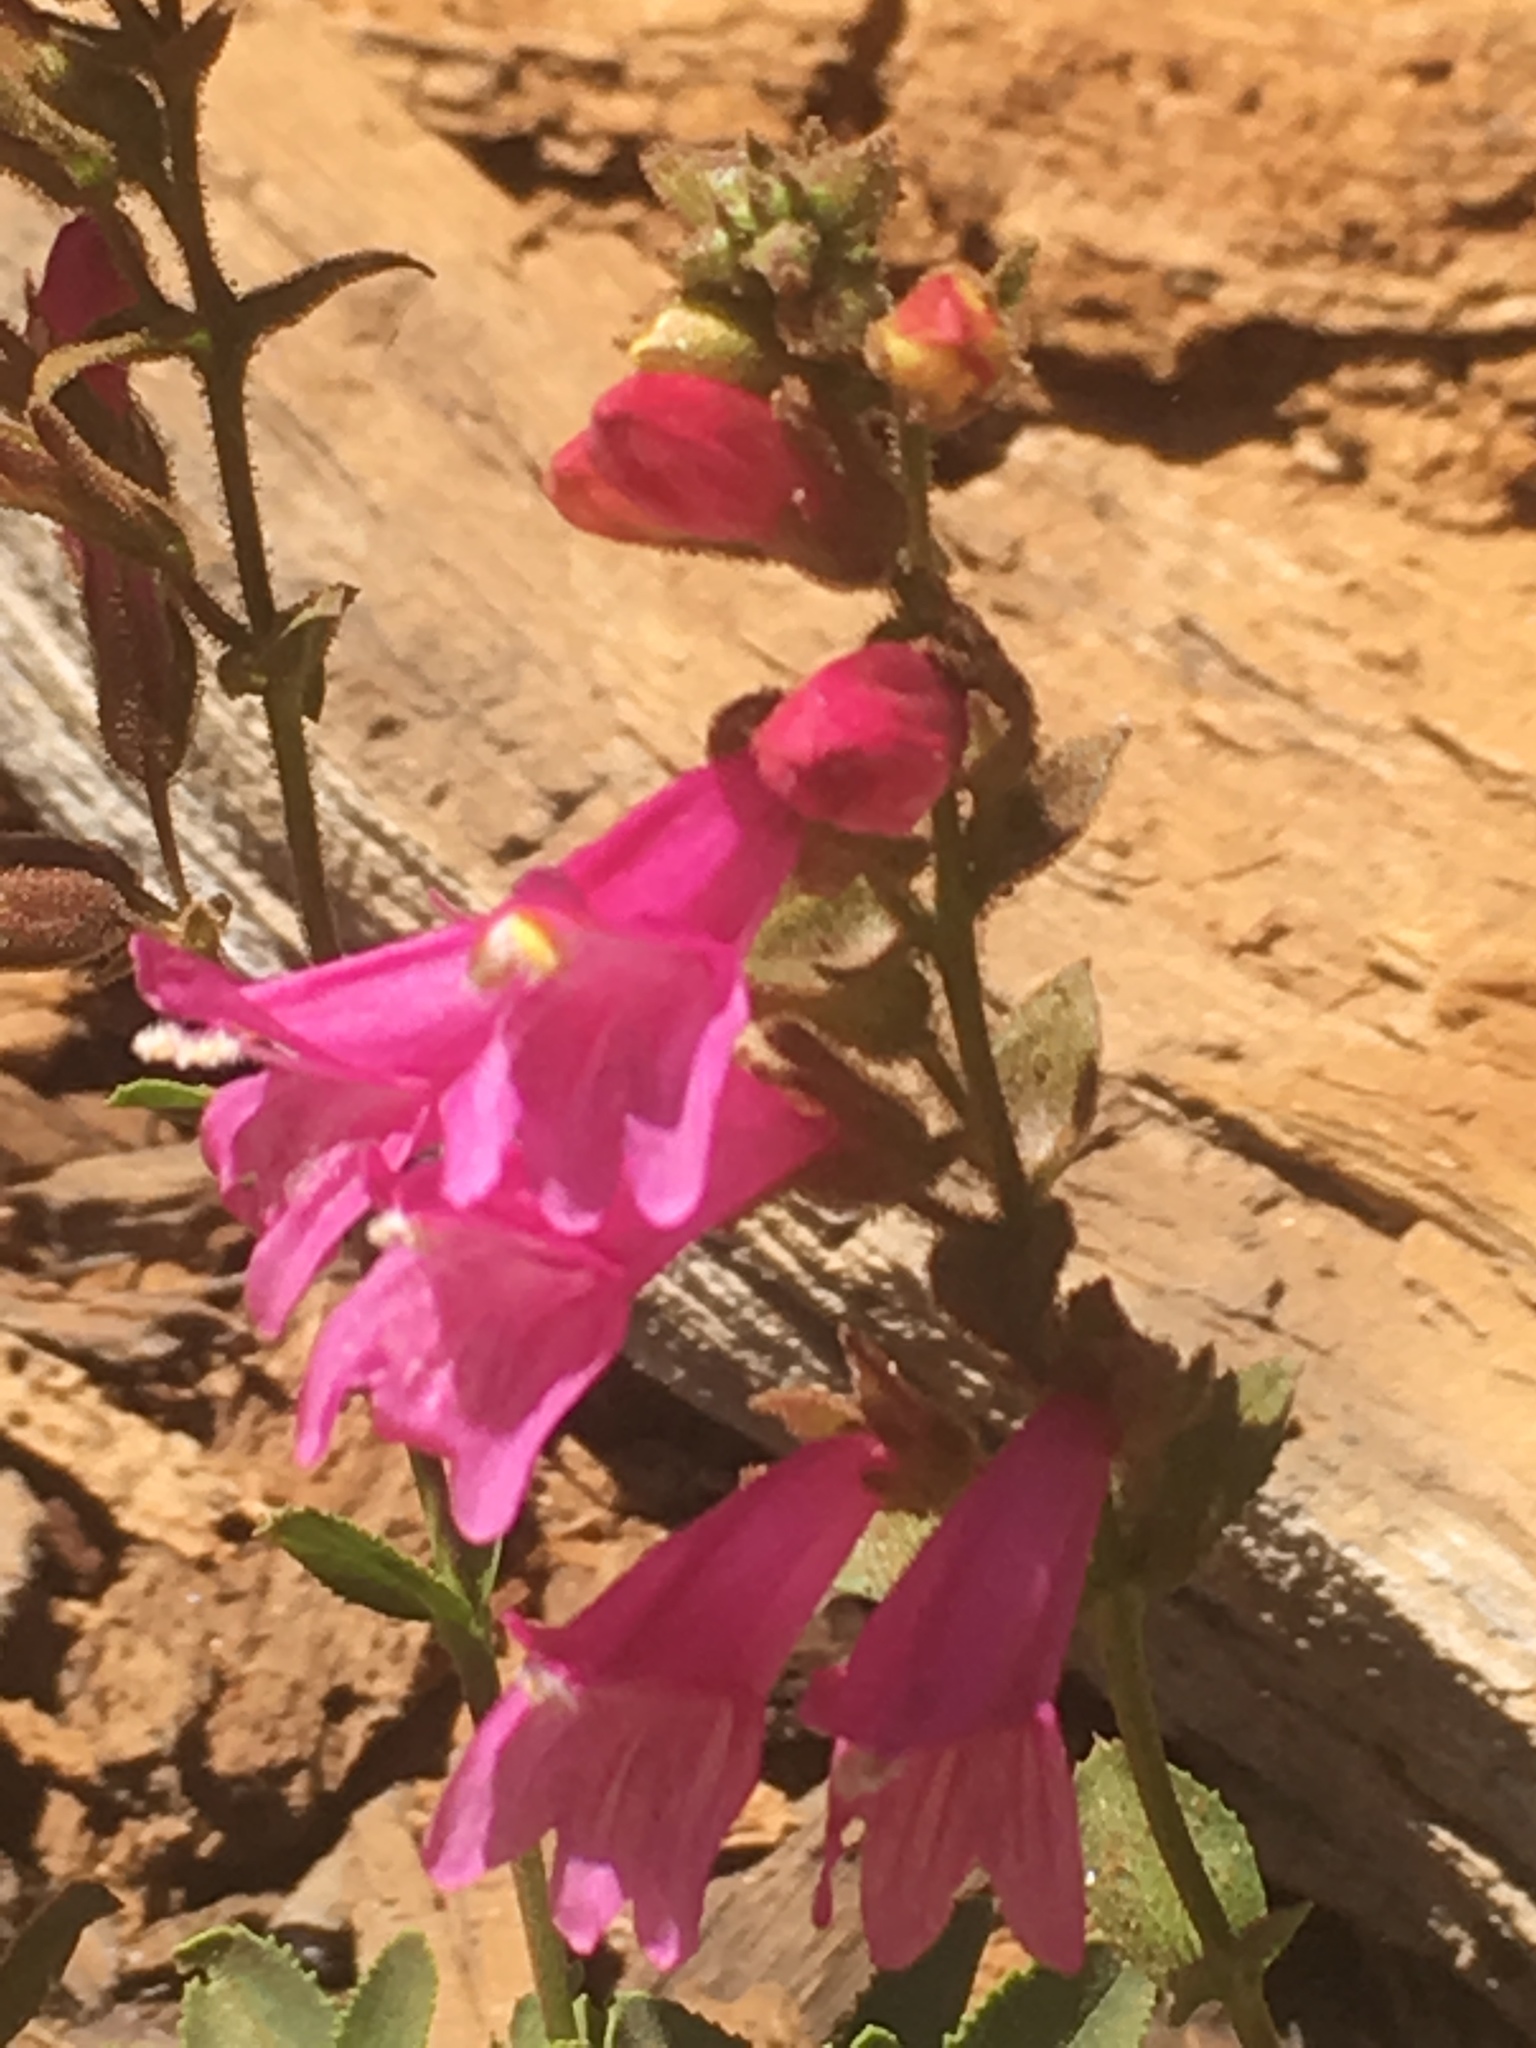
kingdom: Plantae
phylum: Tracheophyta
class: Magnoliopsida
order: Lamiales
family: Plantaginaceae
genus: Penstemon
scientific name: Penstemon newberryi
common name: Mountain-pride
